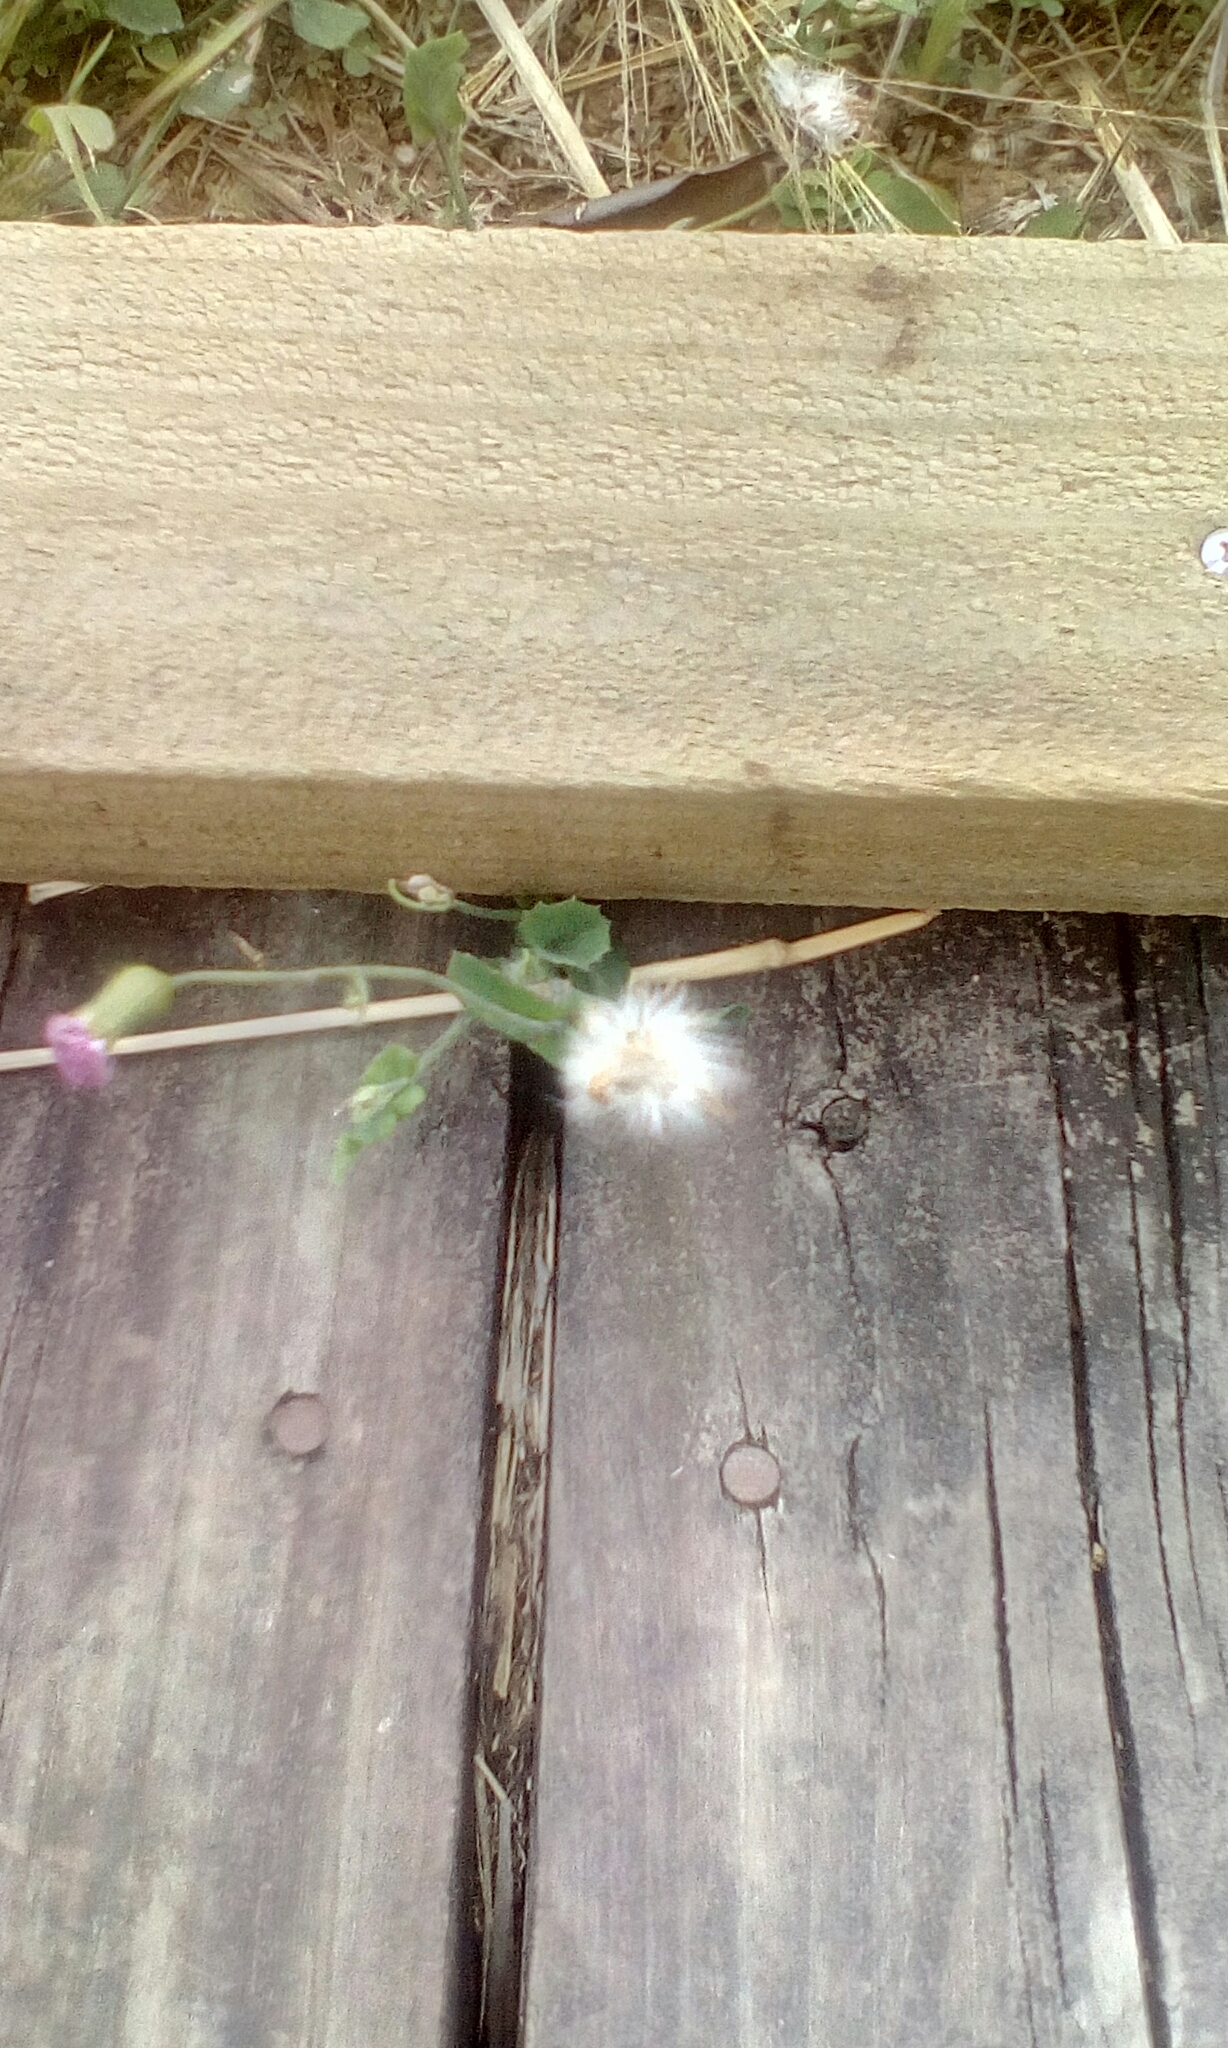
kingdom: Plantae
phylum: Tracheophyta
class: Magnoliopsida
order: Asterales
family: Asteraceae
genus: Emilia
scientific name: Emilia sonchifolia
